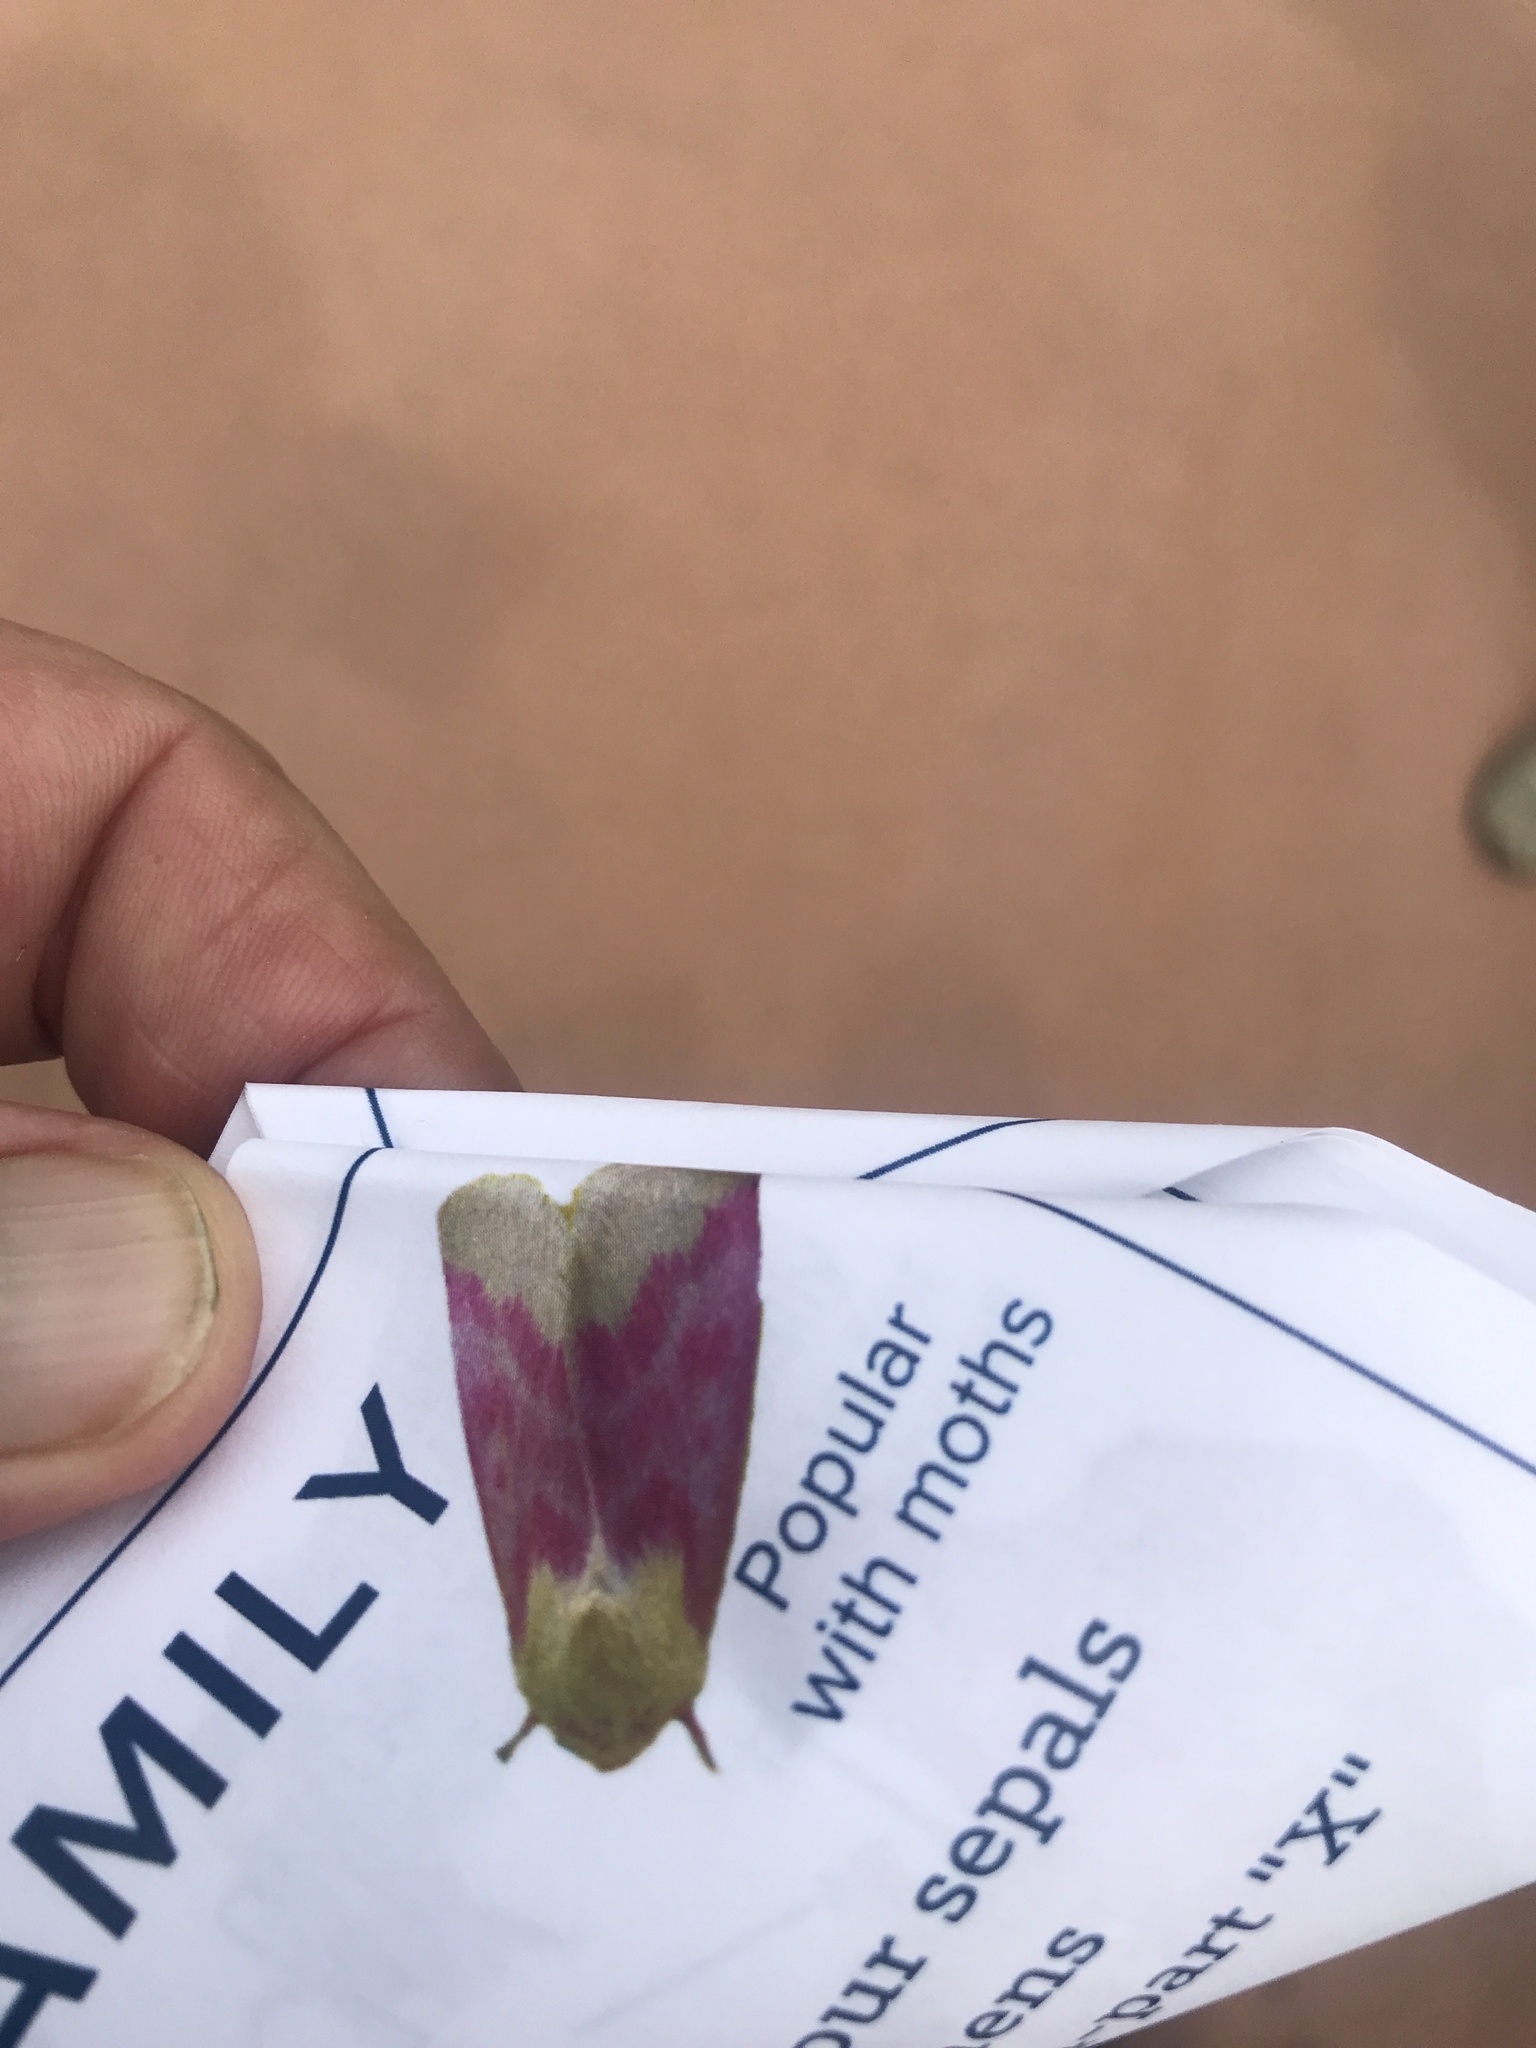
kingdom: Animalia
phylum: Arthropoda
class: Insecta
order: Lepidoptera
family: Noctuidae
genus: Schinia
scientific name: Schinia florida
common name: Primrose moth
